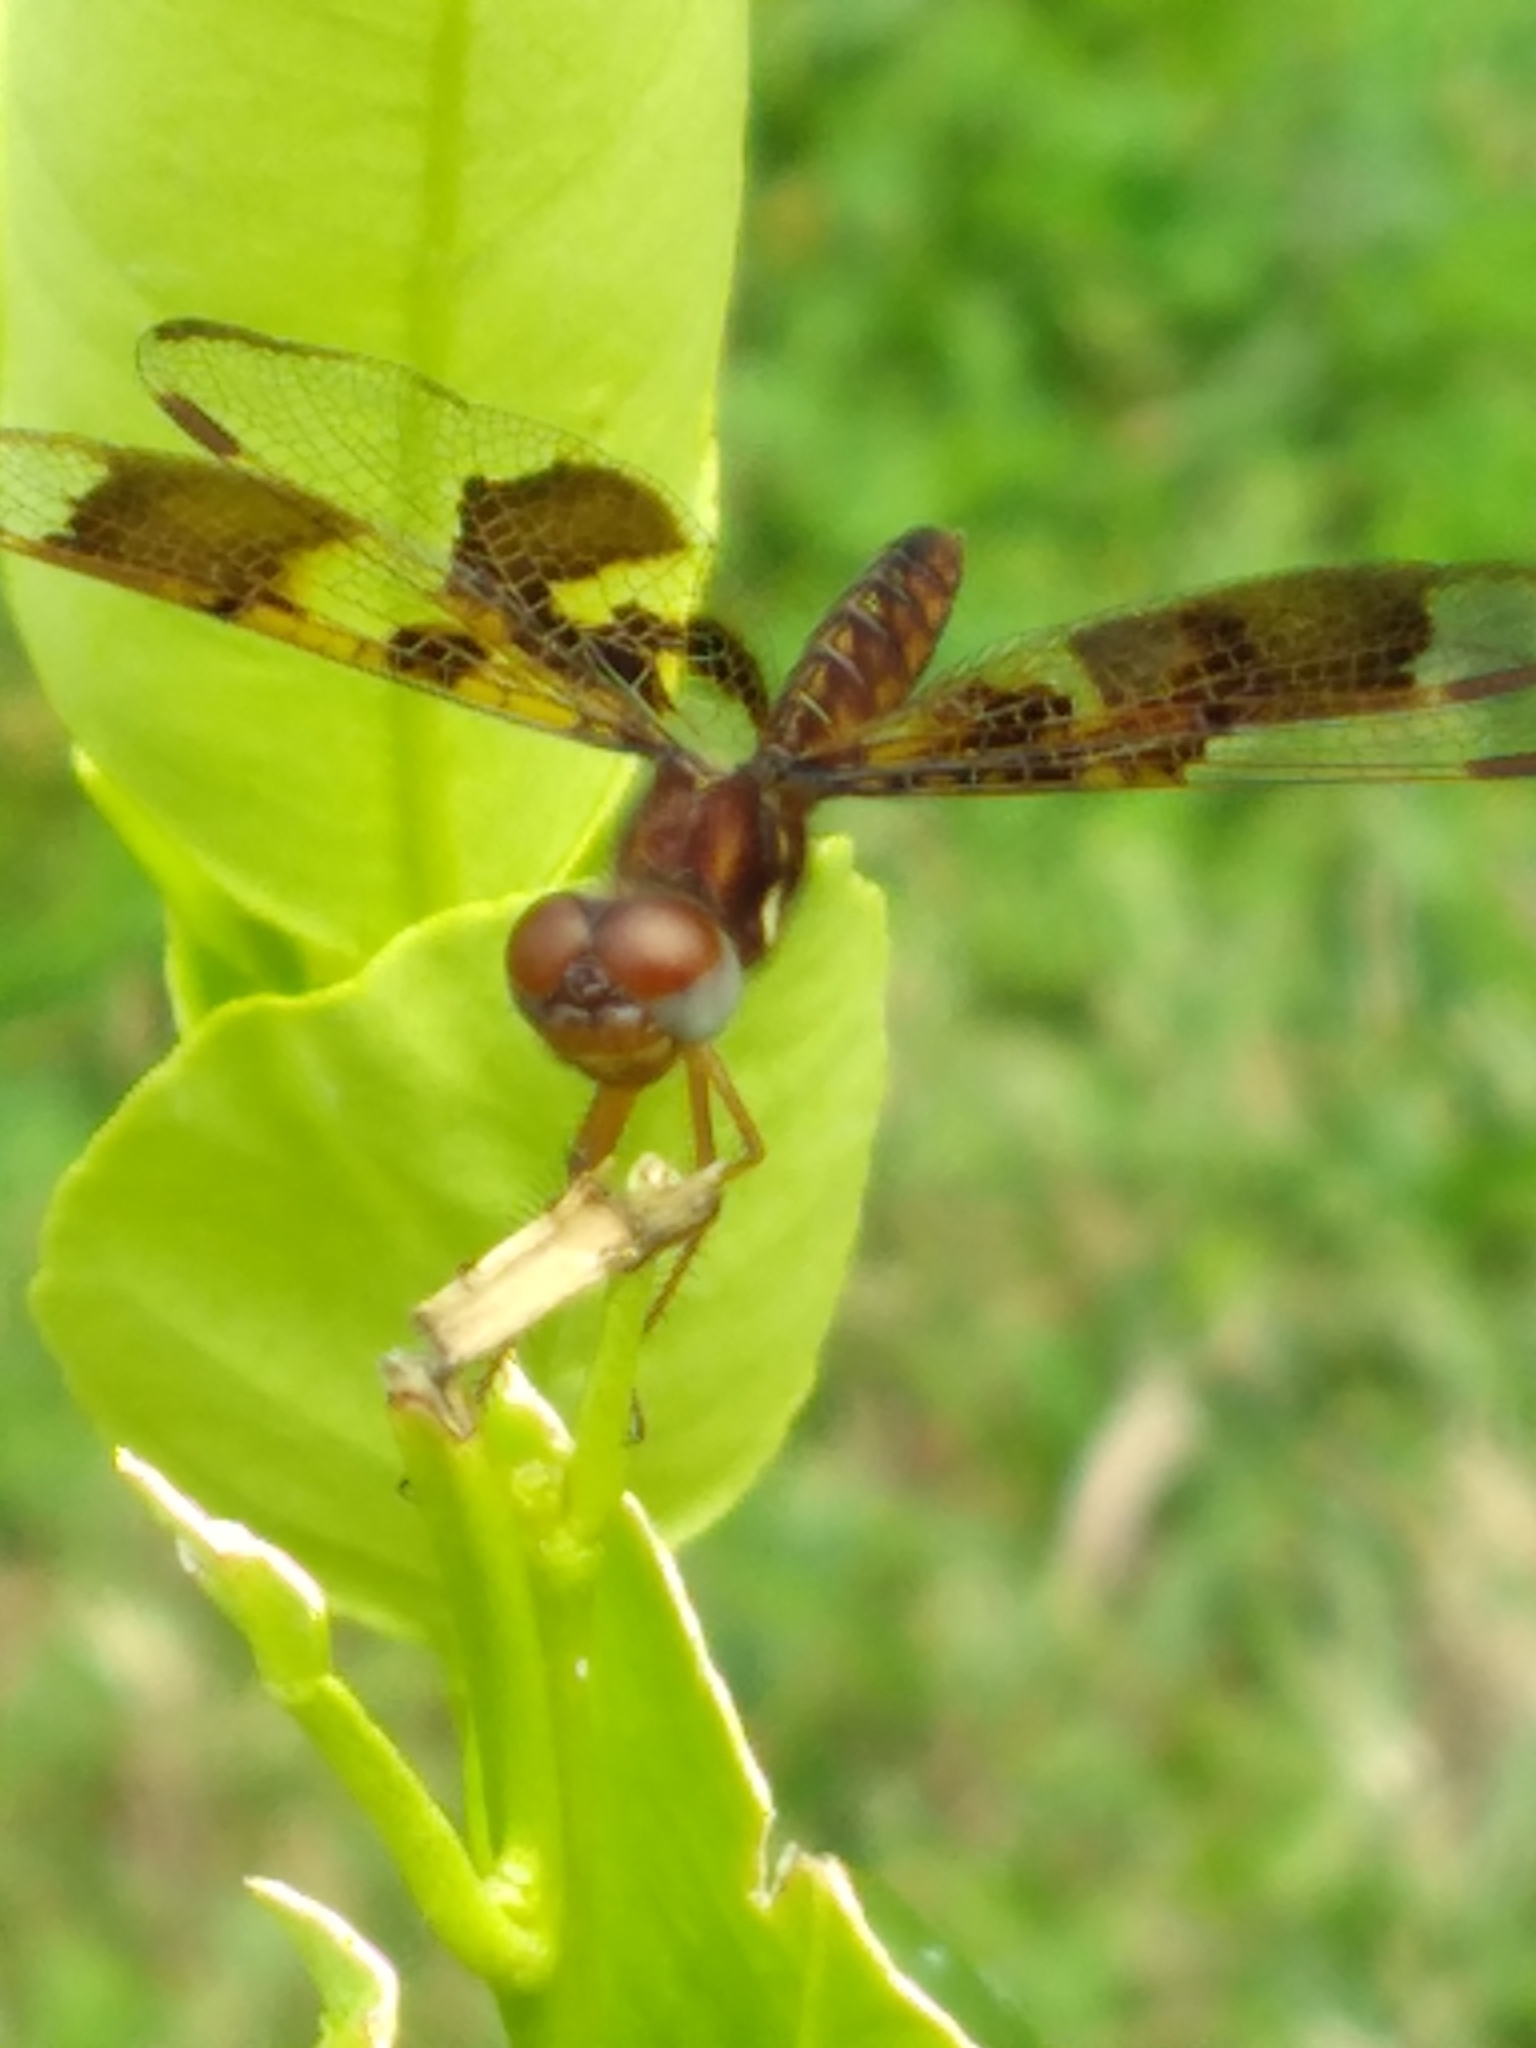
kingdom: Animalia
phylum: Arthropoda
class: Insecta
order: Odonata
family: Libellulidae
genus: Perithemis
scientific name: Perithemis tenera
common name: Eastern amberwing
